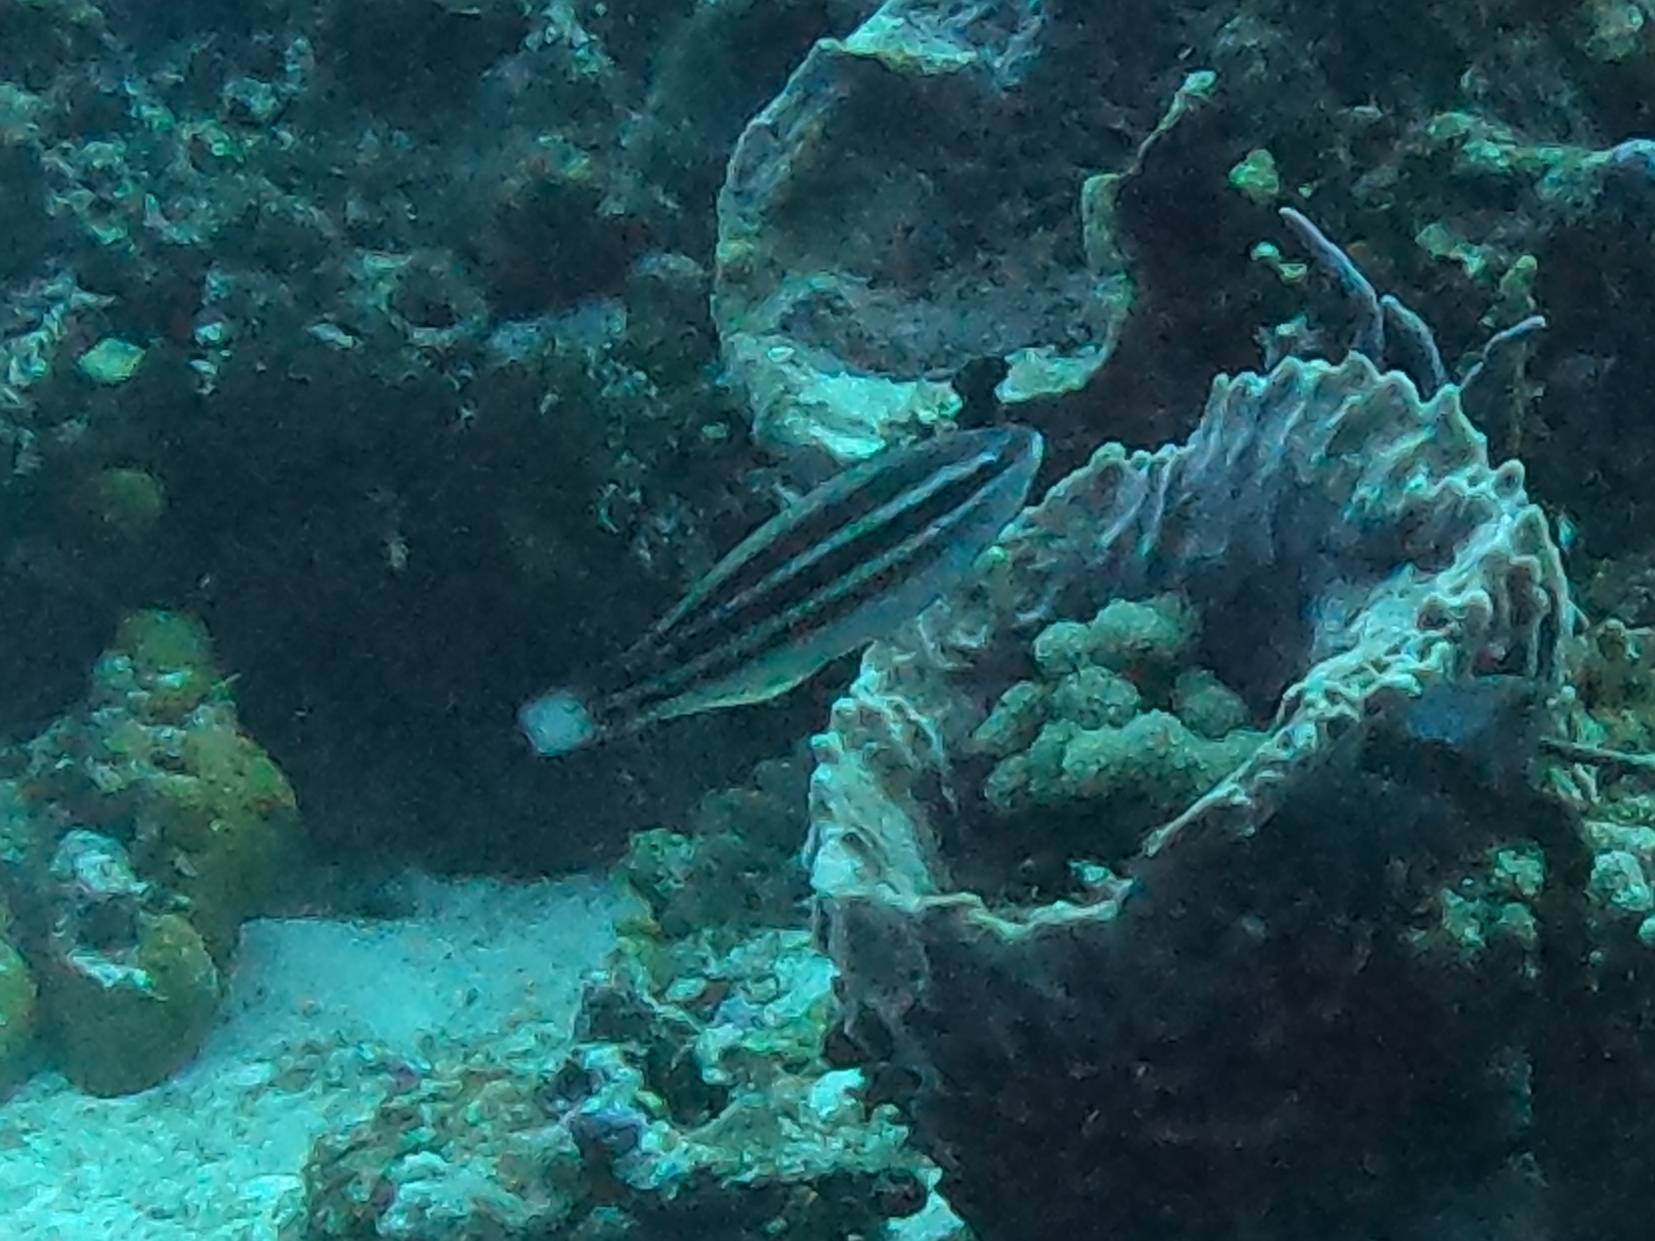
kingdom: Animalia
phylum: Chordata
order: Perciformes
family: Scaridae
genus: Scarus
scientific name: Scarus taeniopterus
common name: Princess parrotfish
